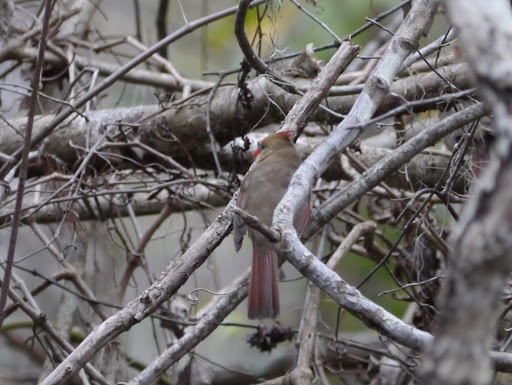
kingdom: Animalia
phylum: Chordata
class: Aves
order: Passeriformes
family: Cardinalidae
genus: Cardinalis
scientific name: Cardinalis cardinalis
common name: Northern cardinal
